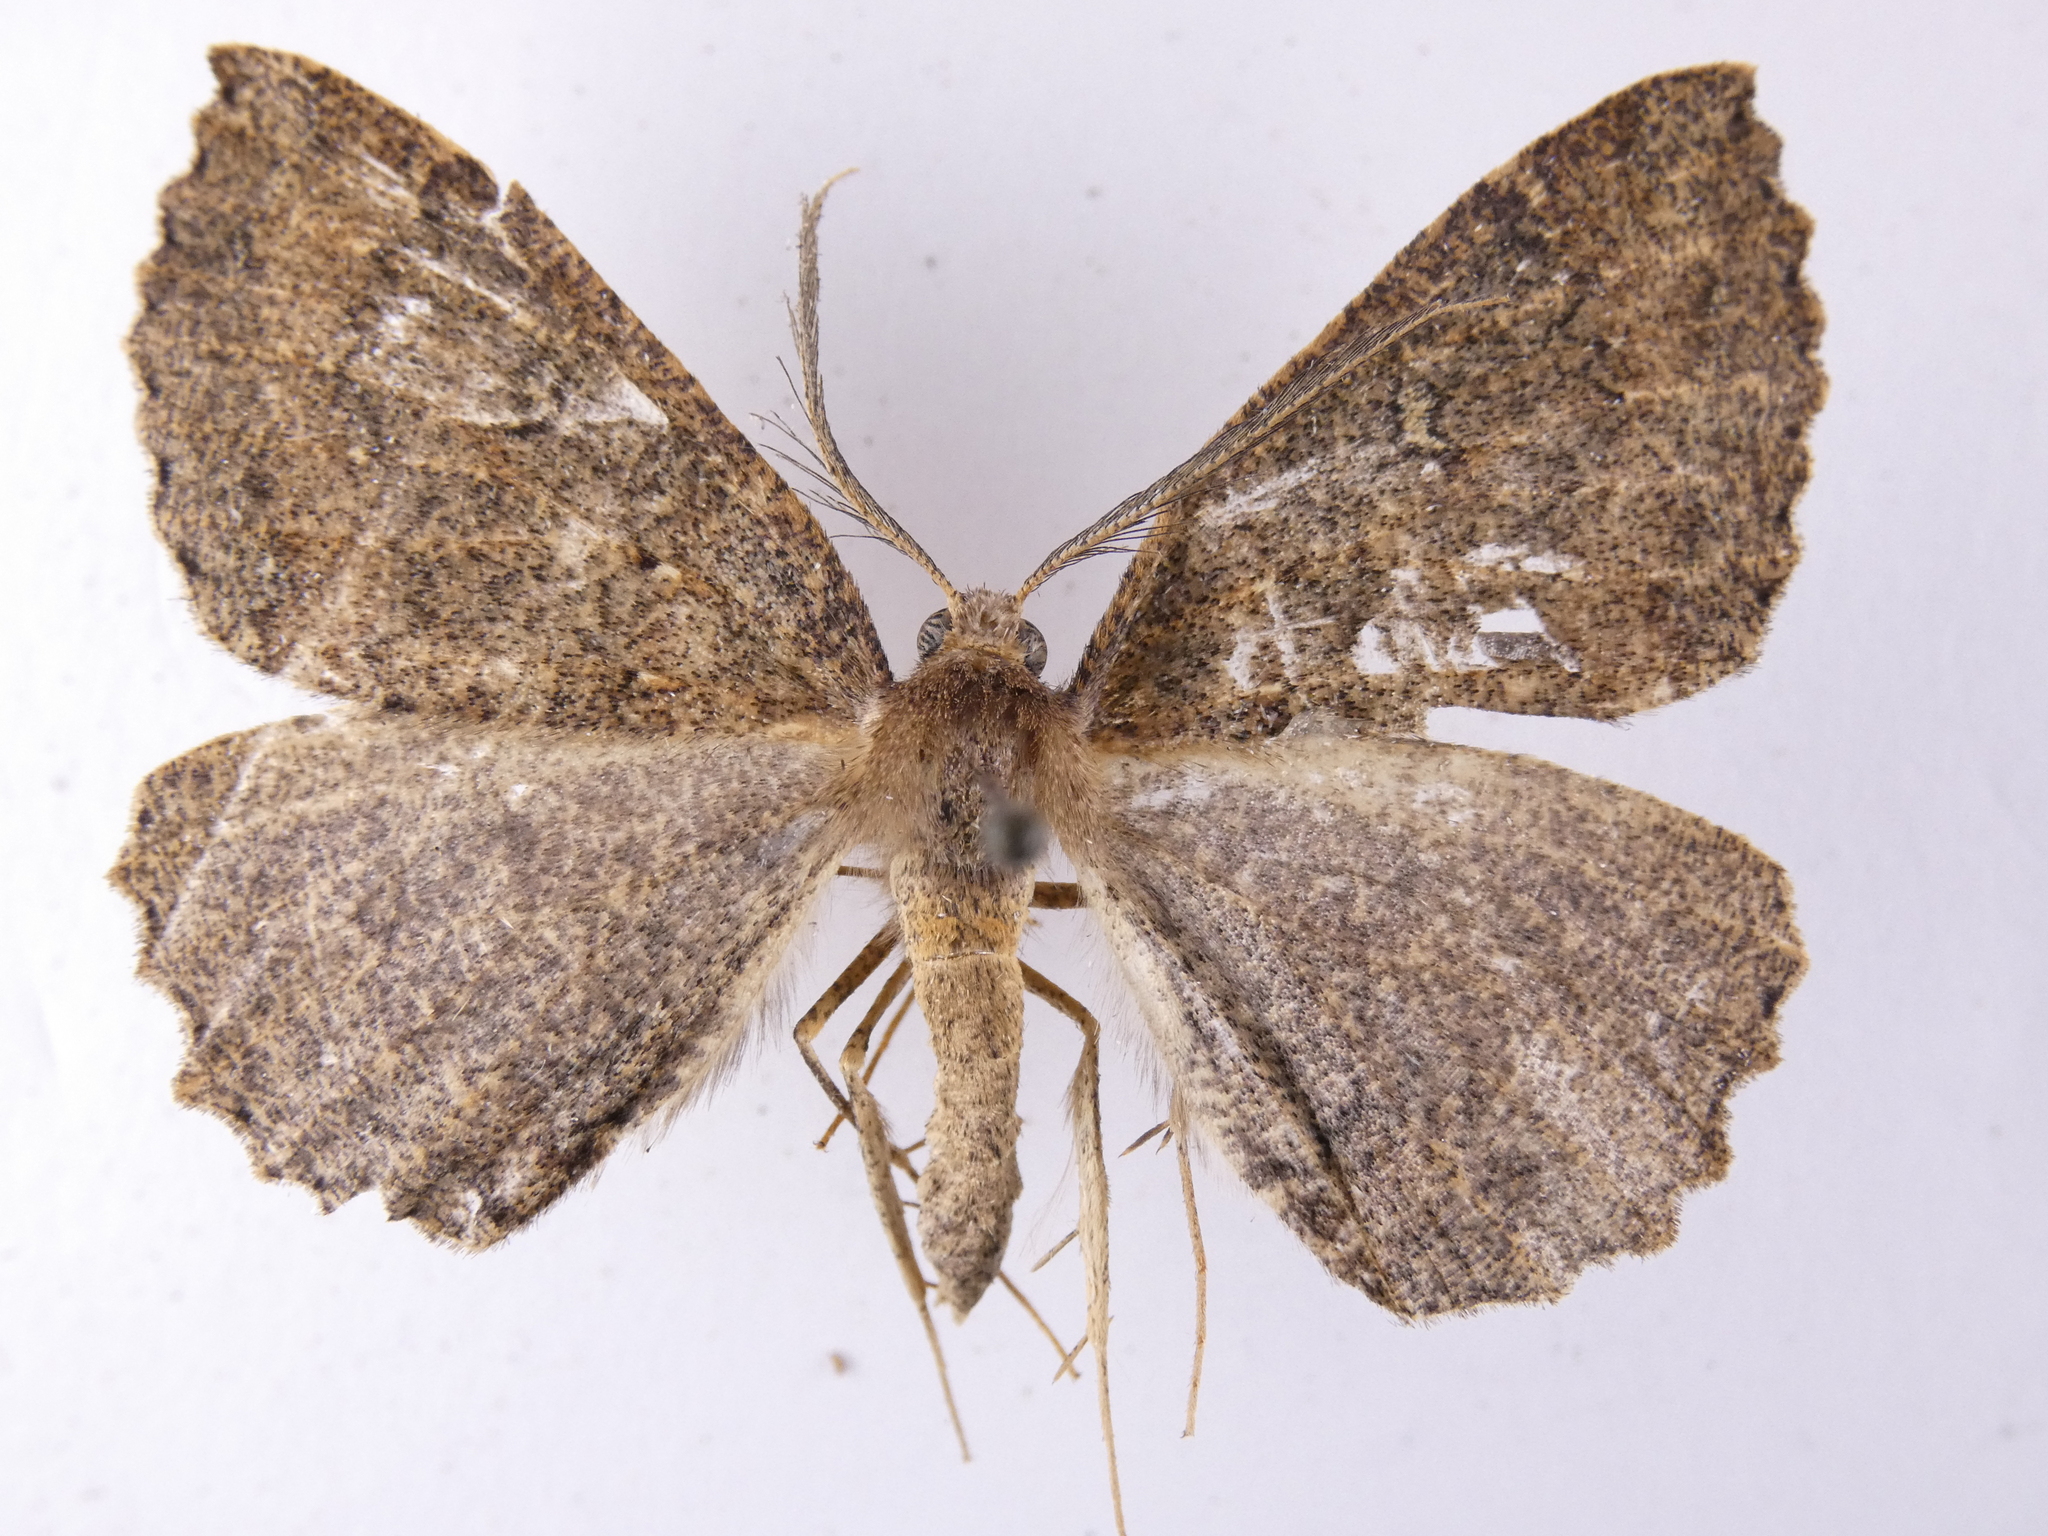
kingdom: Animalia
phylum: Arthropoda
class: Insecta
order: Lepidoptera
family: Geometridae
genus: Cleora
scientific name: Cleora scriptaria
